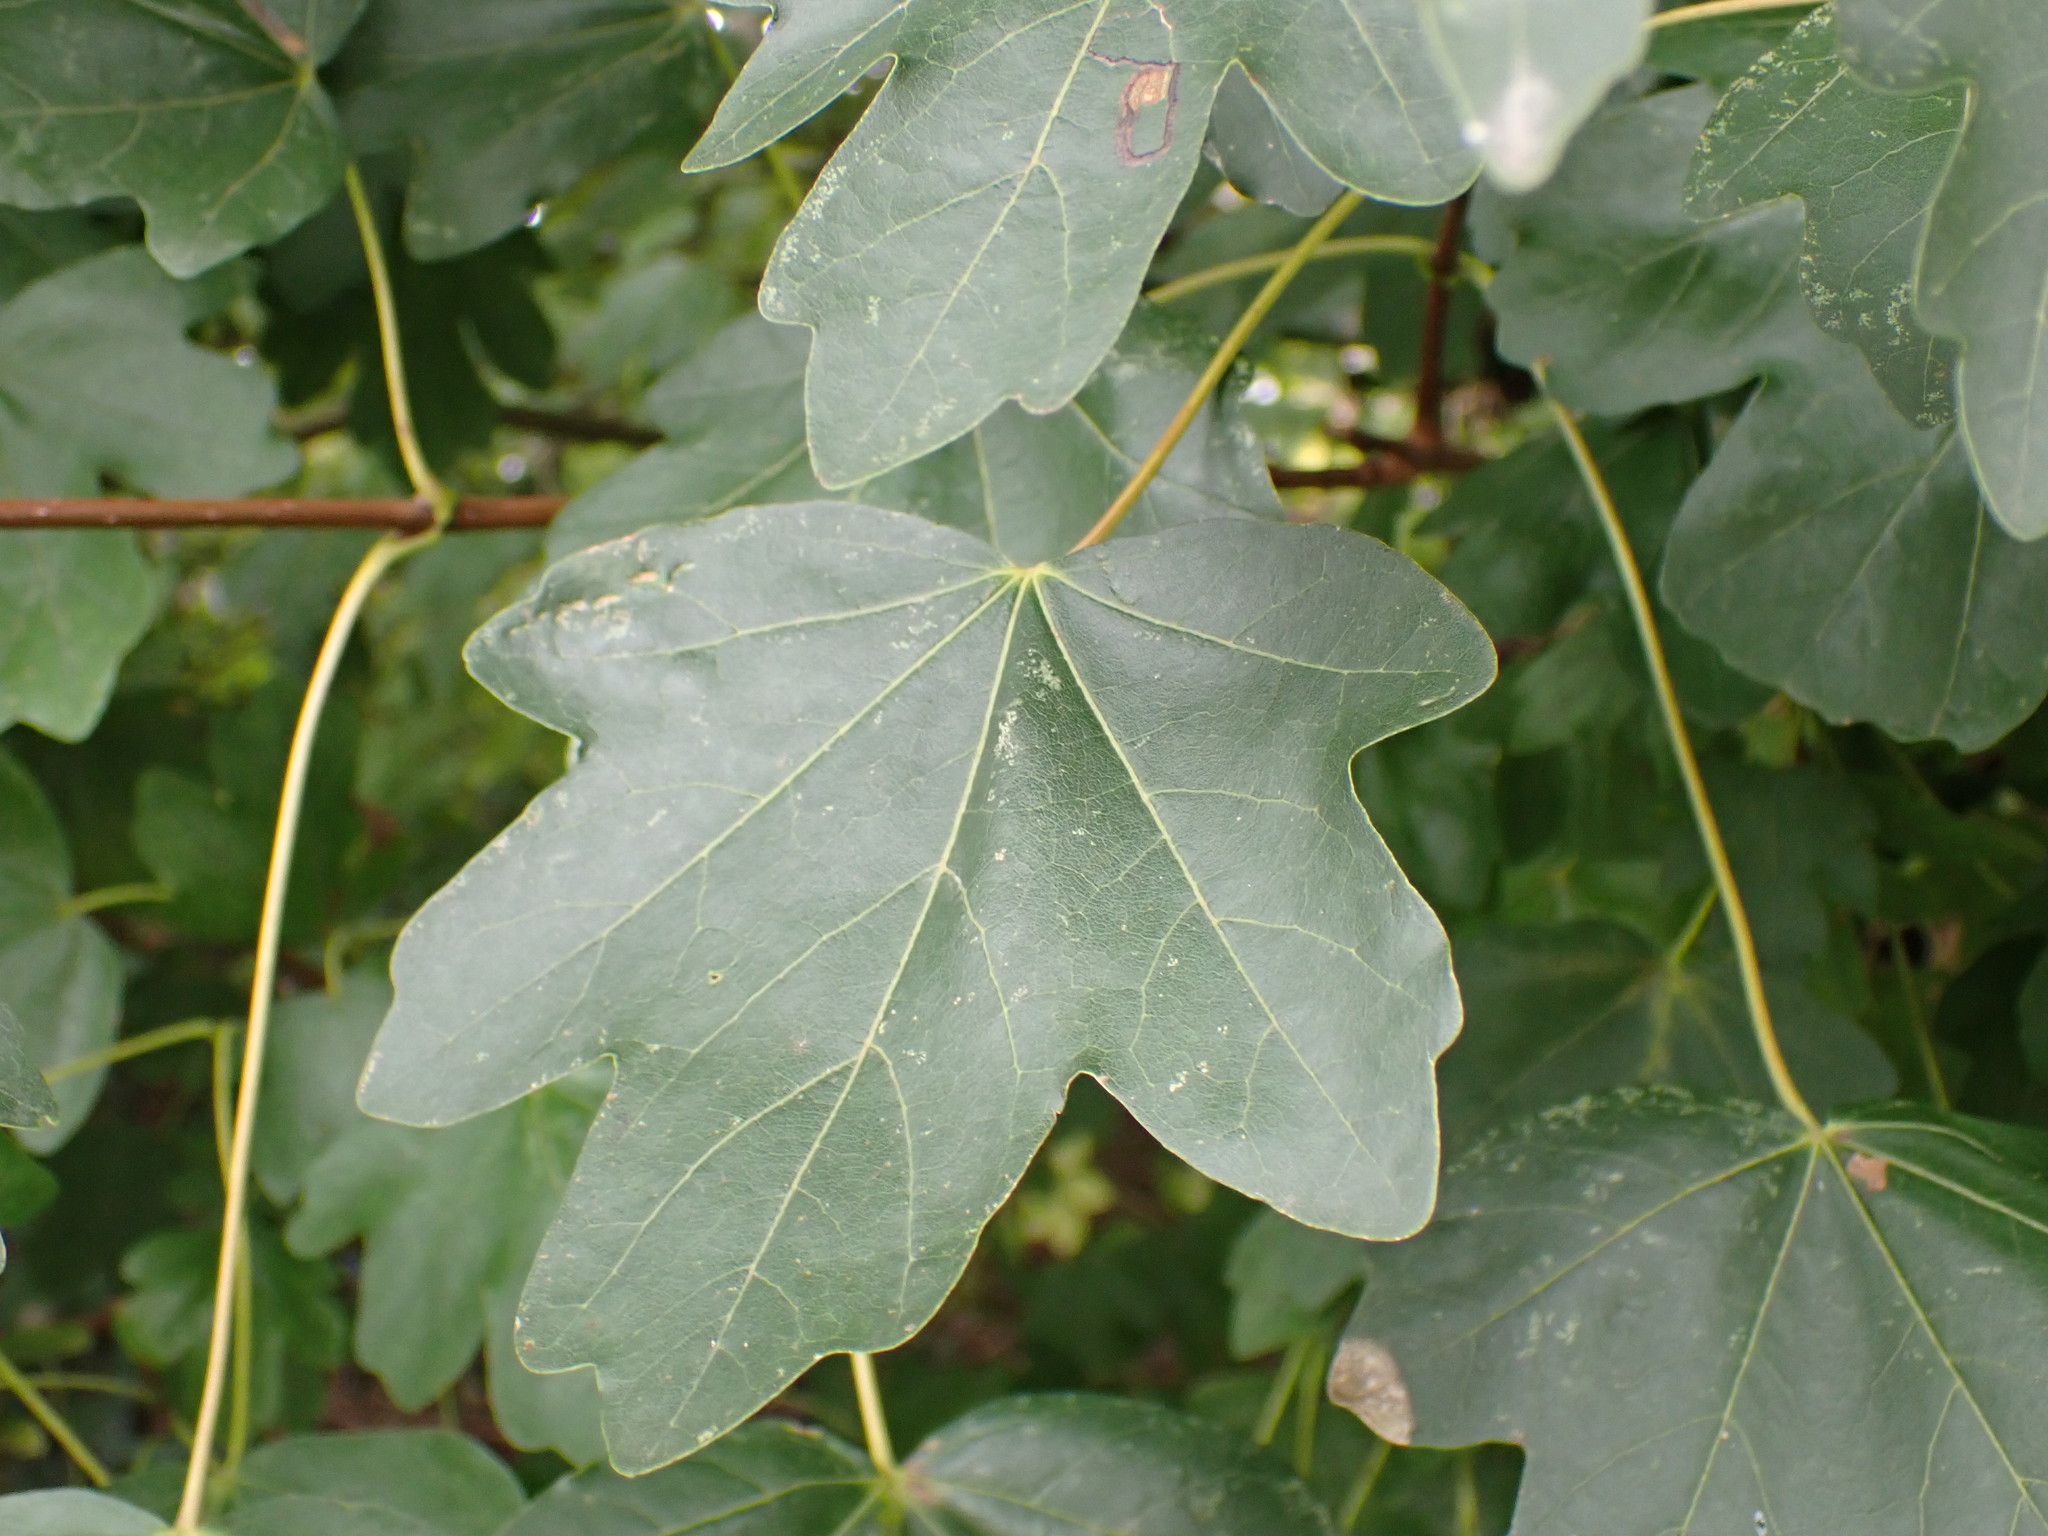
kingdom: Plantae
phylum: Tracheophyta
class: Magnoliopsida
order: Sapindales
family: Sapindaceae
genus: Acer
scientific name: Acer campestre
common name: Field maple
